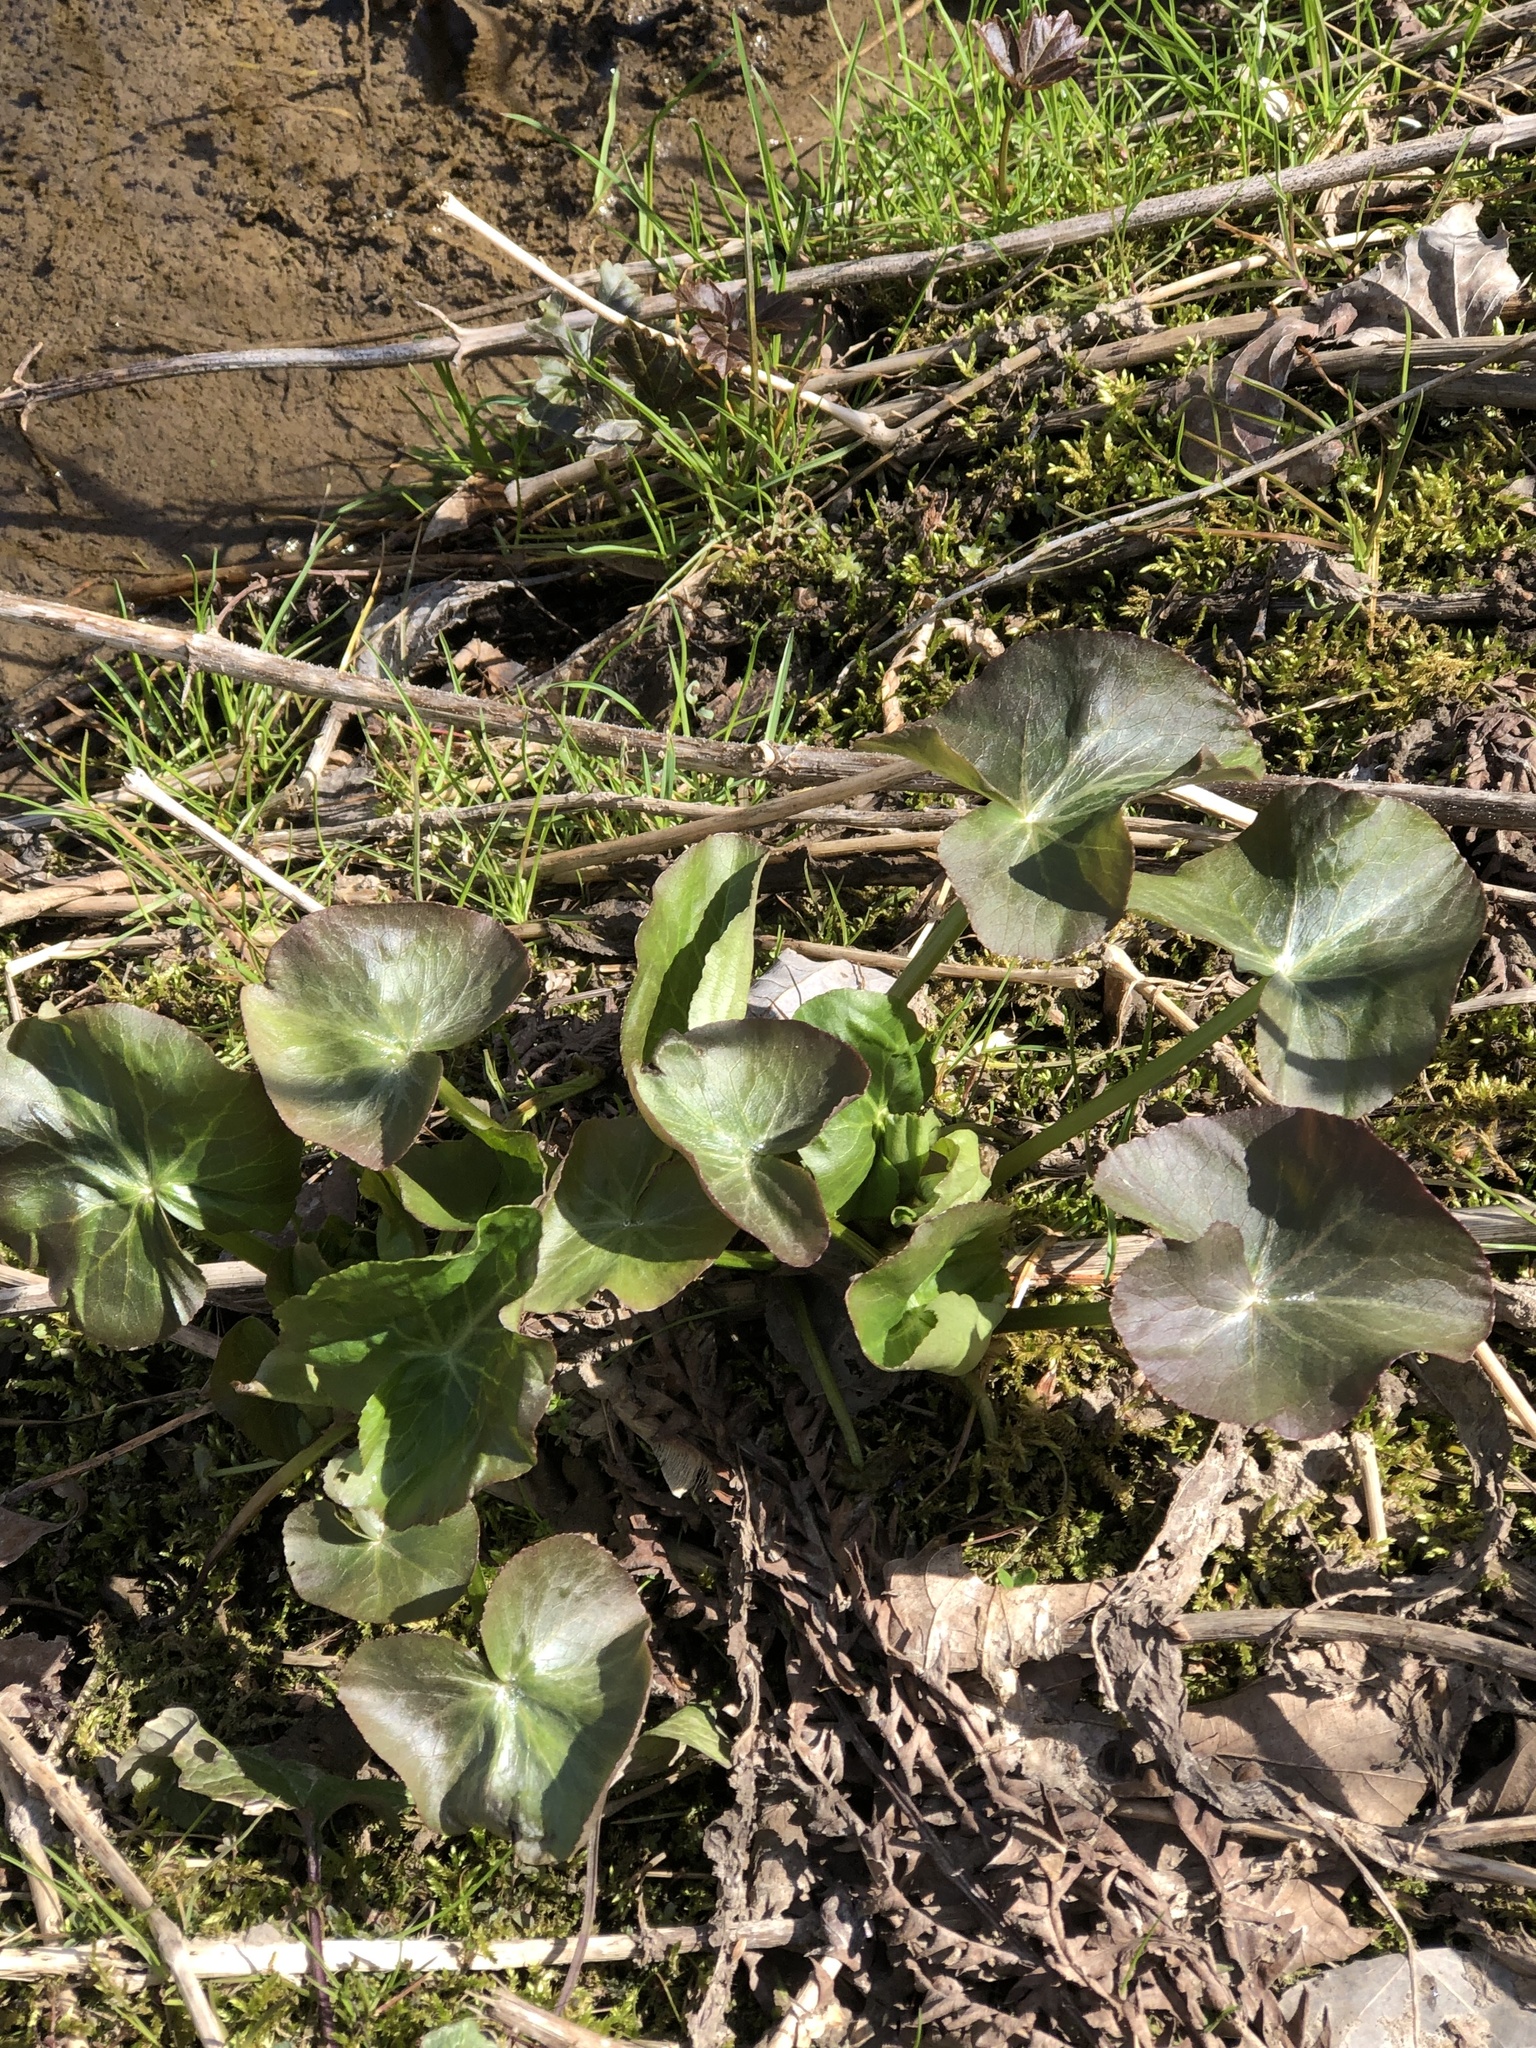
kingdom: Plantae
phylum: Tracheophyta
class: Magnoliopsida
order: Ranunculales
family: Ranunculaceae
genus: Caltha
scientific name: Caltha palustris
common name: Marsh marigold
